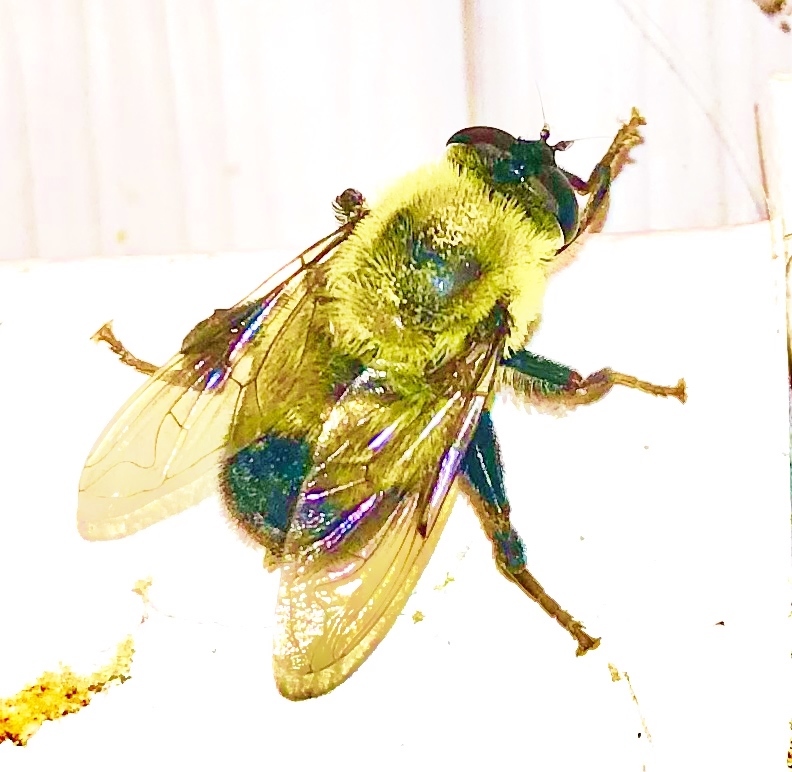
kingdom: Animalia
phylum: Arthropoda
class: Insecta
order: Diptera
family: Syrphidae
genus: Imatisma
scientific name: Imatisma posticata
